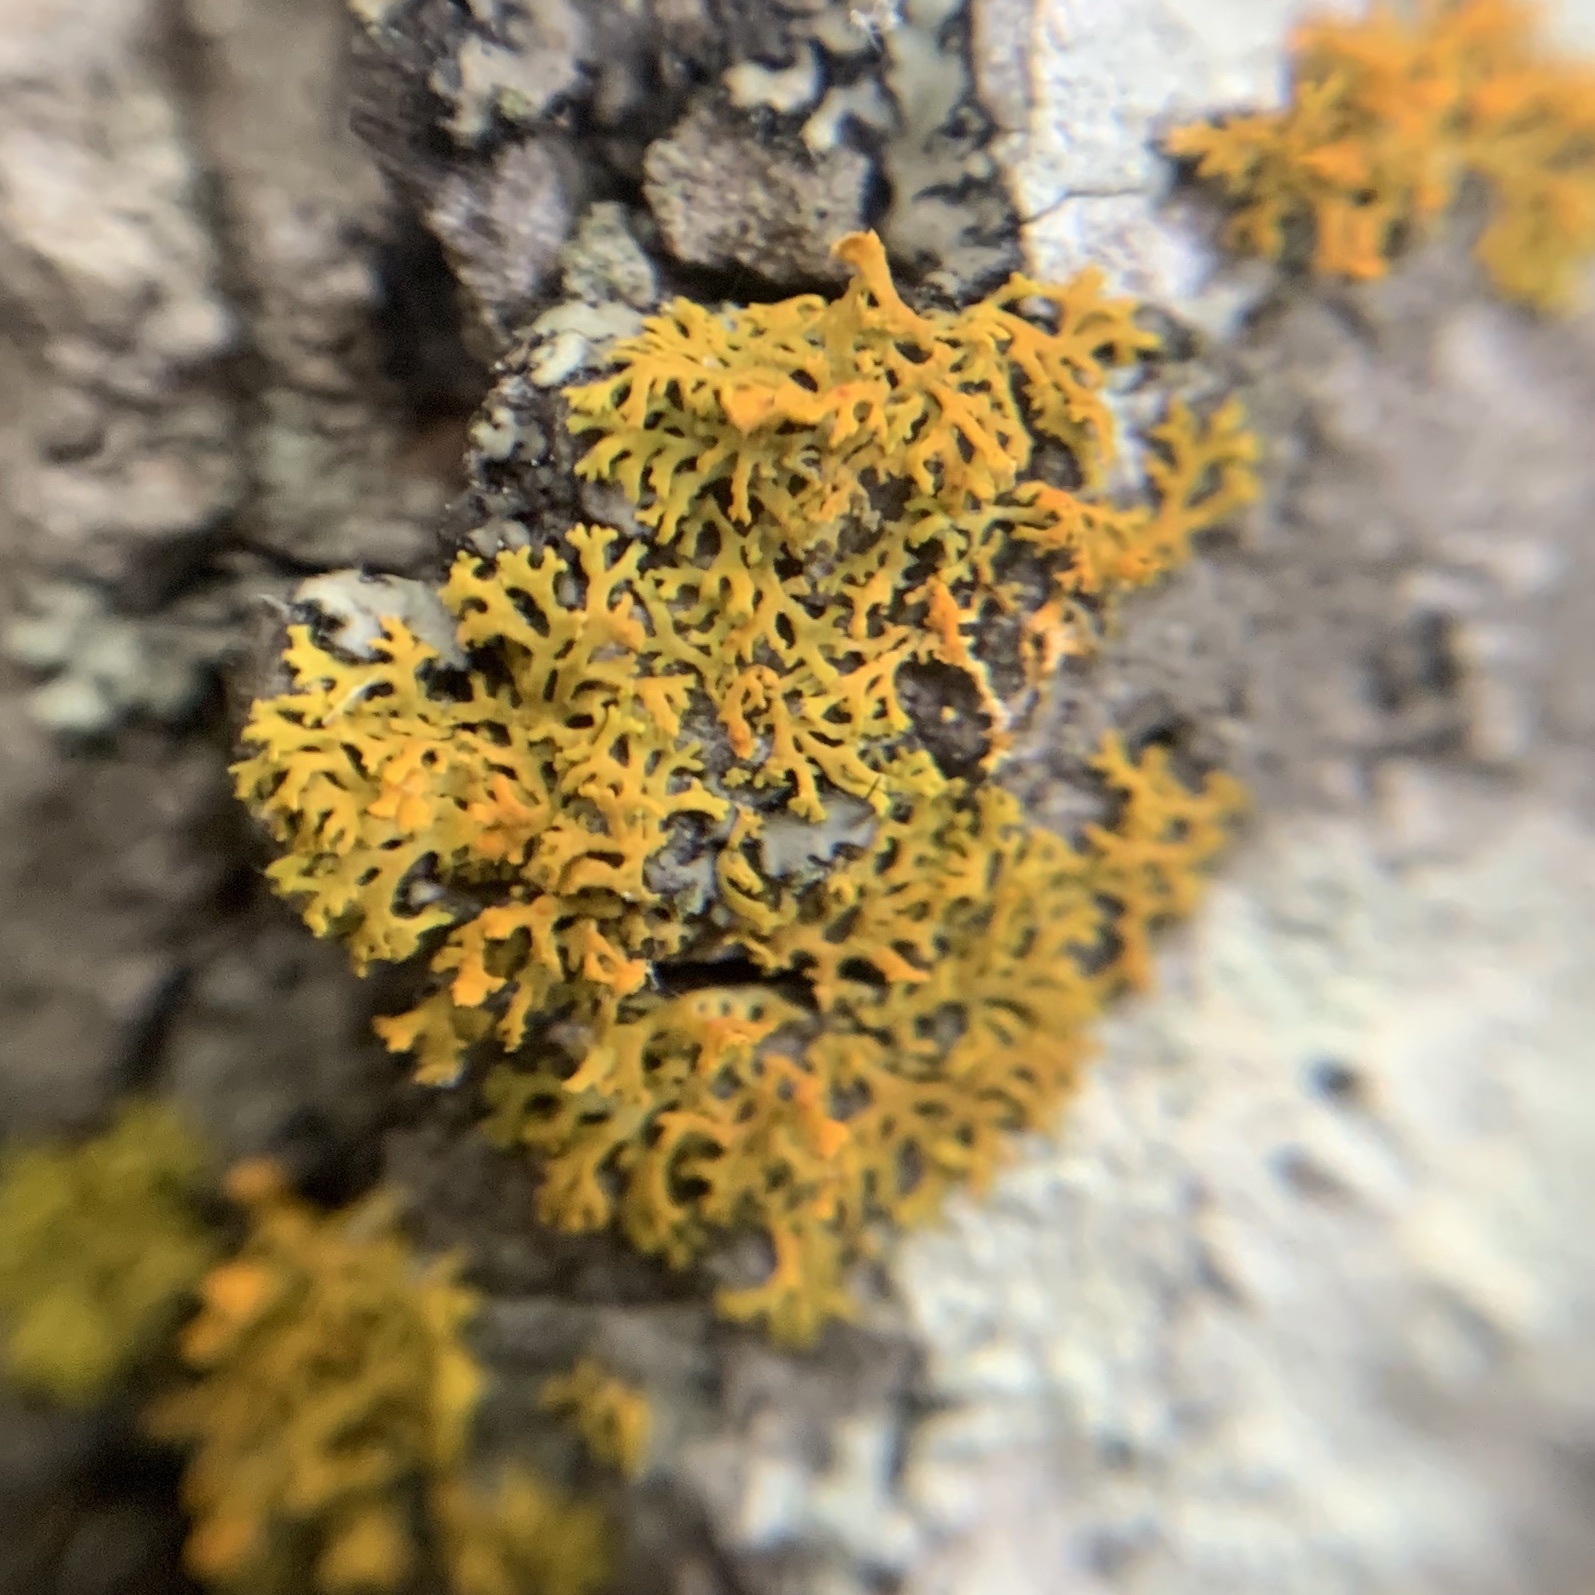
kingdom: Fungi
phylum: Ascomycota
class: Lecanoromycetes
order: Teloschistales
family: Teloschistaceae
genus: Gallowayella
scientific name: Gallowayella weberi
